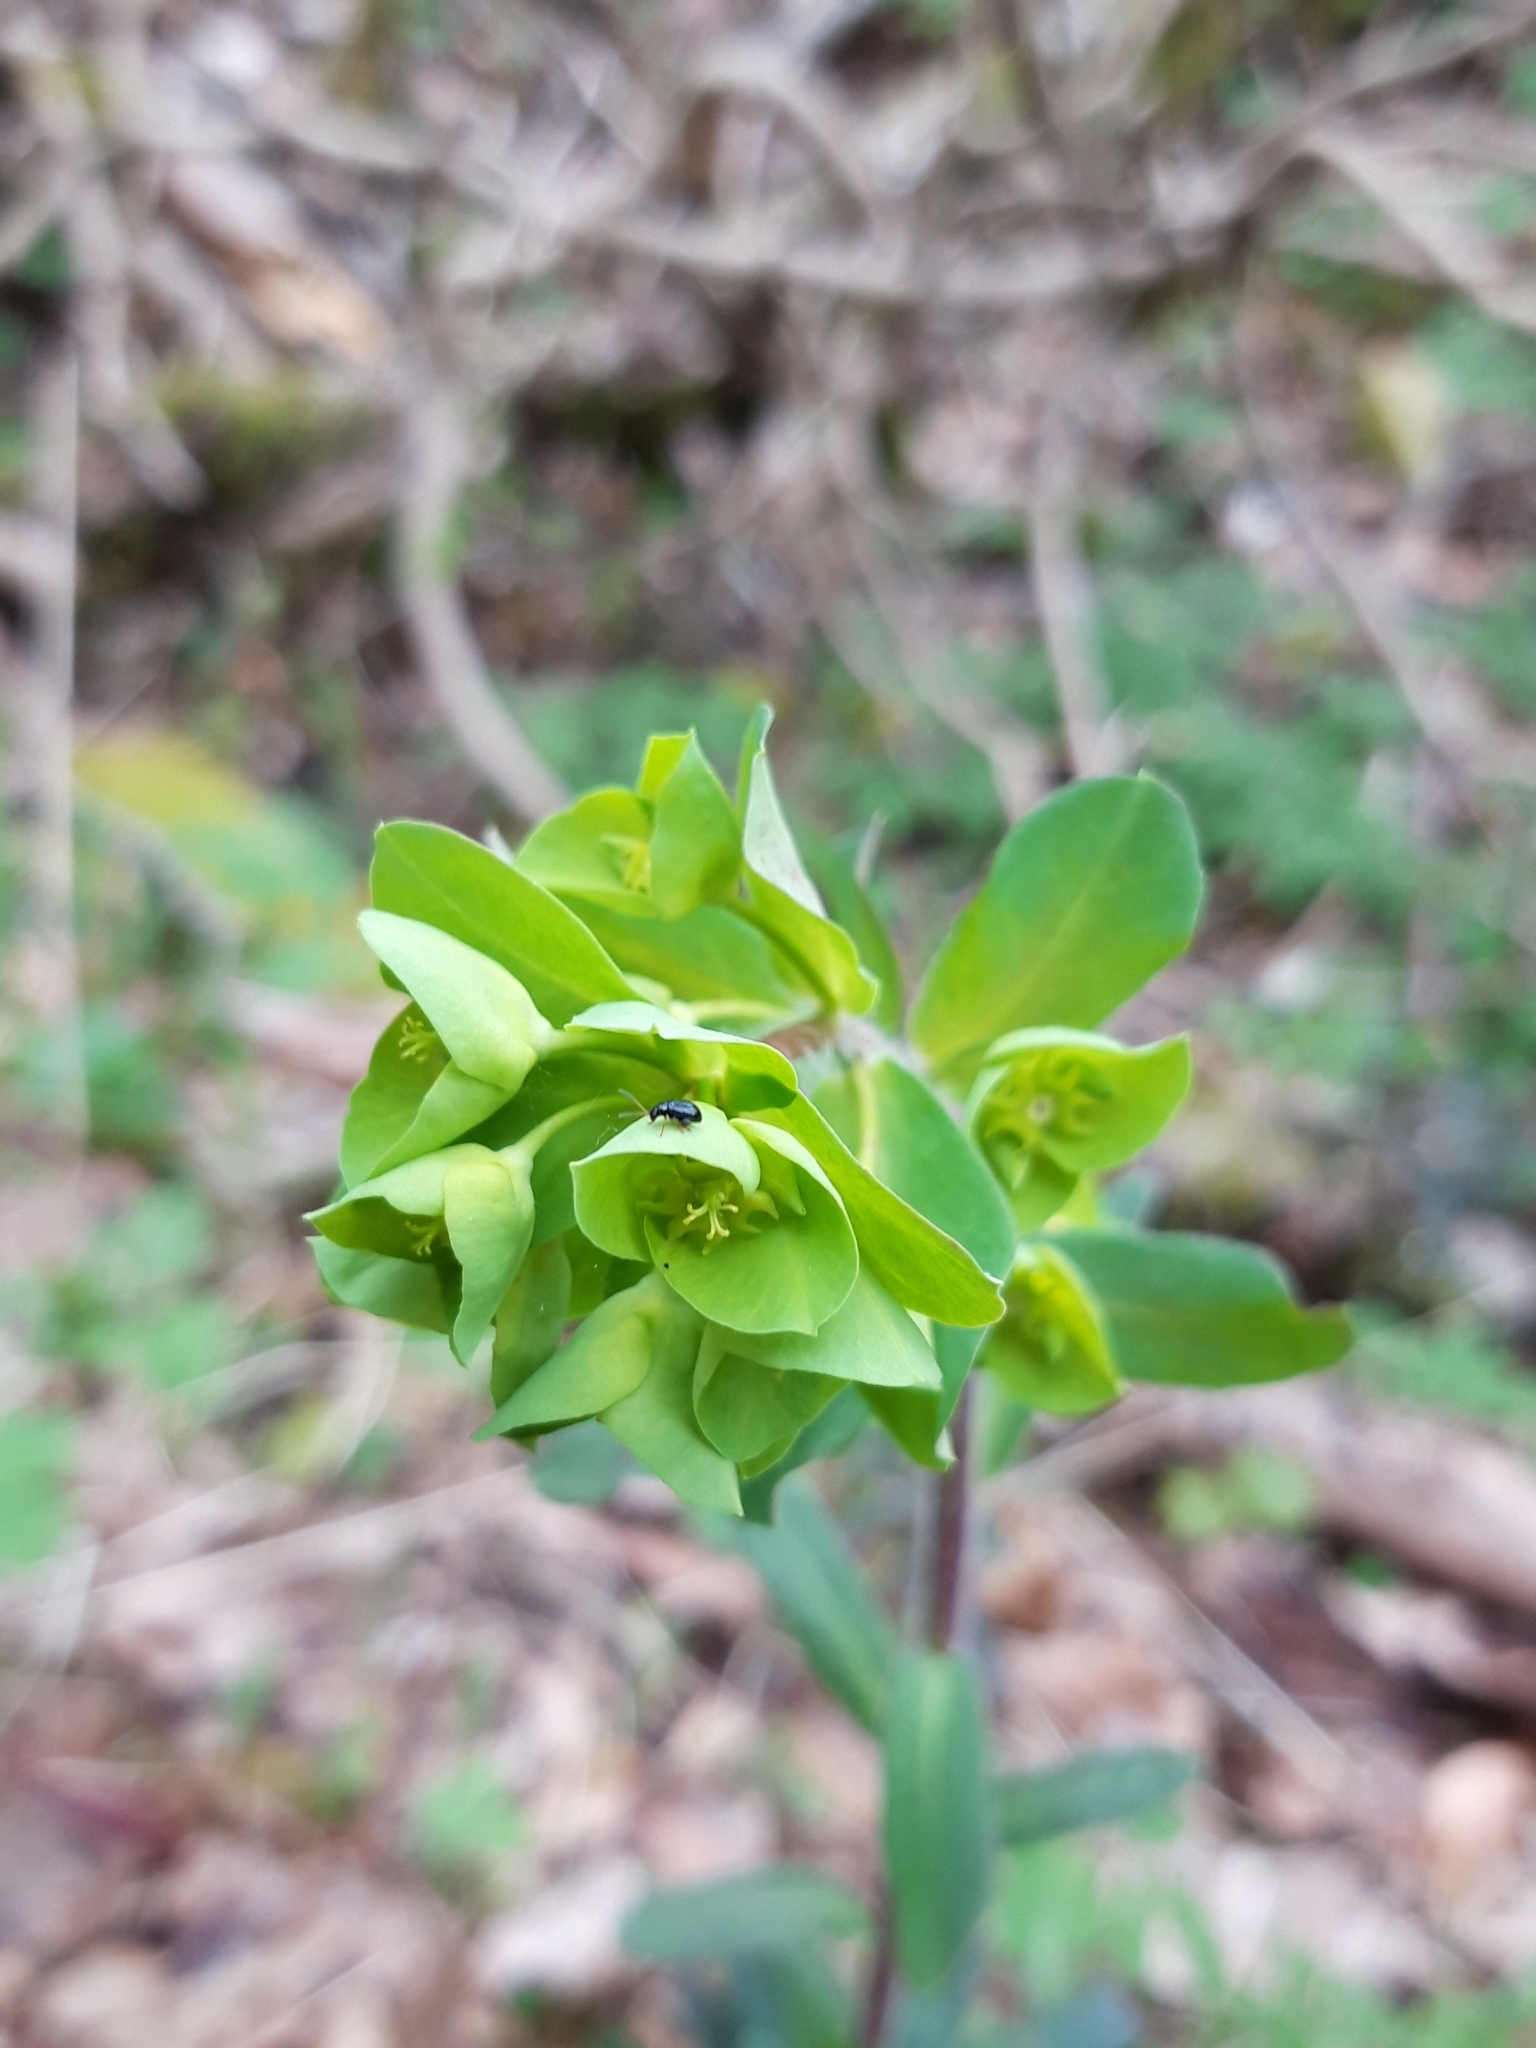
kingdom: Plantae
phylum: Tracheophyta
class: Magnoliopsida
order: Malpighiales
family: Euphorbiaceae
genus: Euphorbia
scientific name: Euphorbia amygdaloides
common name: Wood spurge
